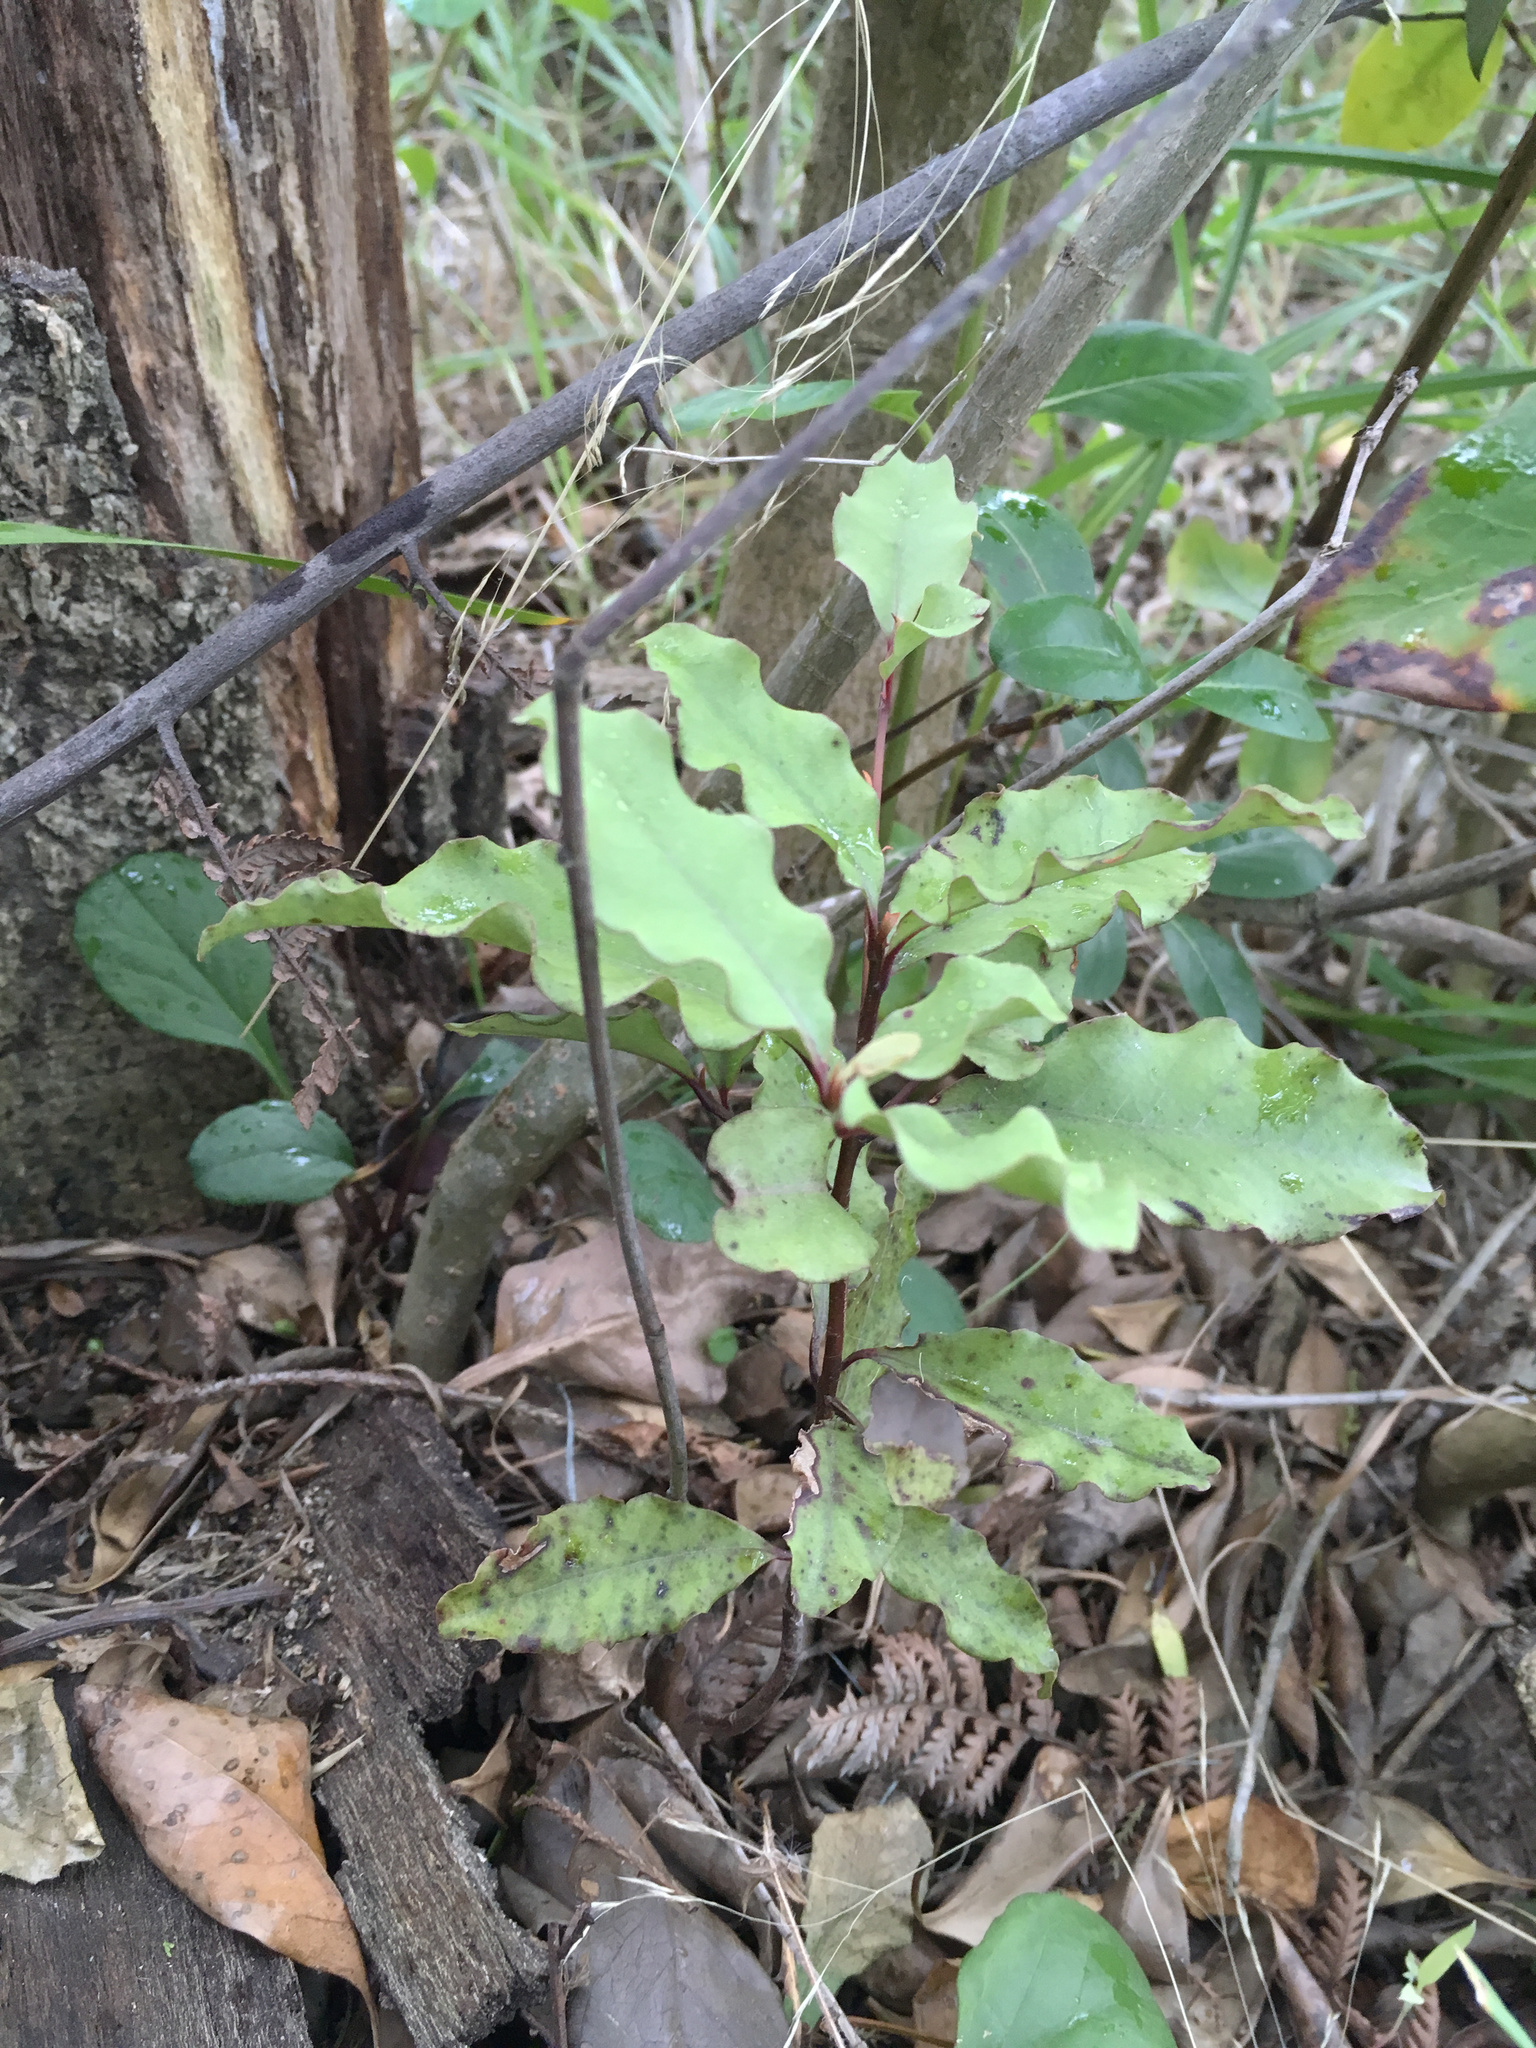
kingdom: Plantae
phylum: Tracheophyta
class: Magnoliopsida
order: Ericales
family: Primulaceae
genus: Myrsine
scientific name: Myrsine australis
